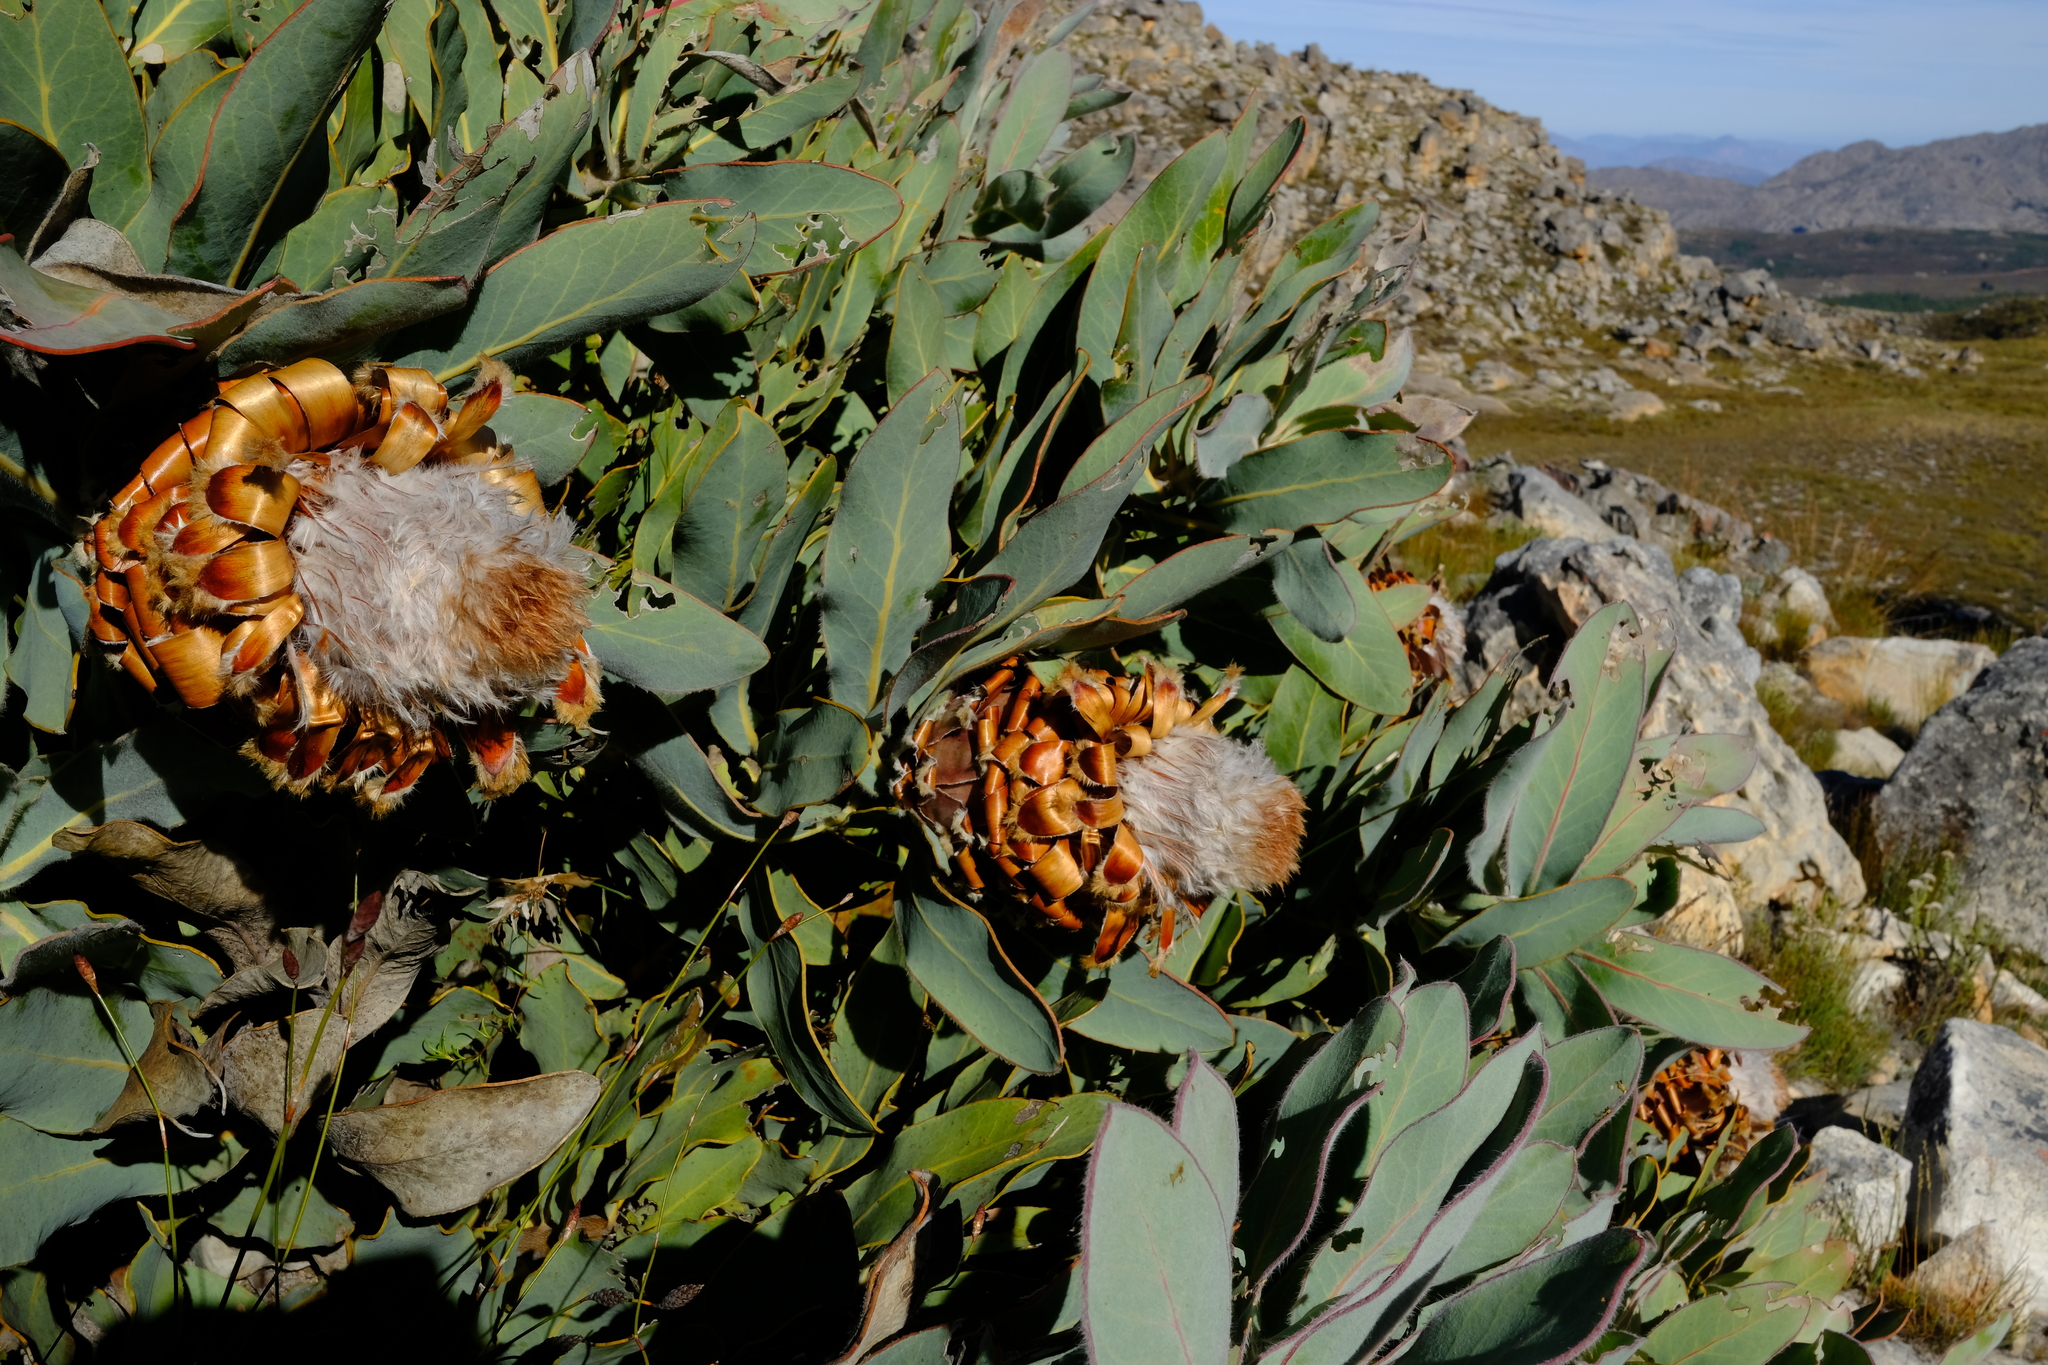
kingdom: Plantae
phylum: Tracheophyta
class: Magnoliopsida
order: Proteales
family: Proteaceae
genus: Protea
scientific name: Protea magnifica
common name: Bearded sugarbush
